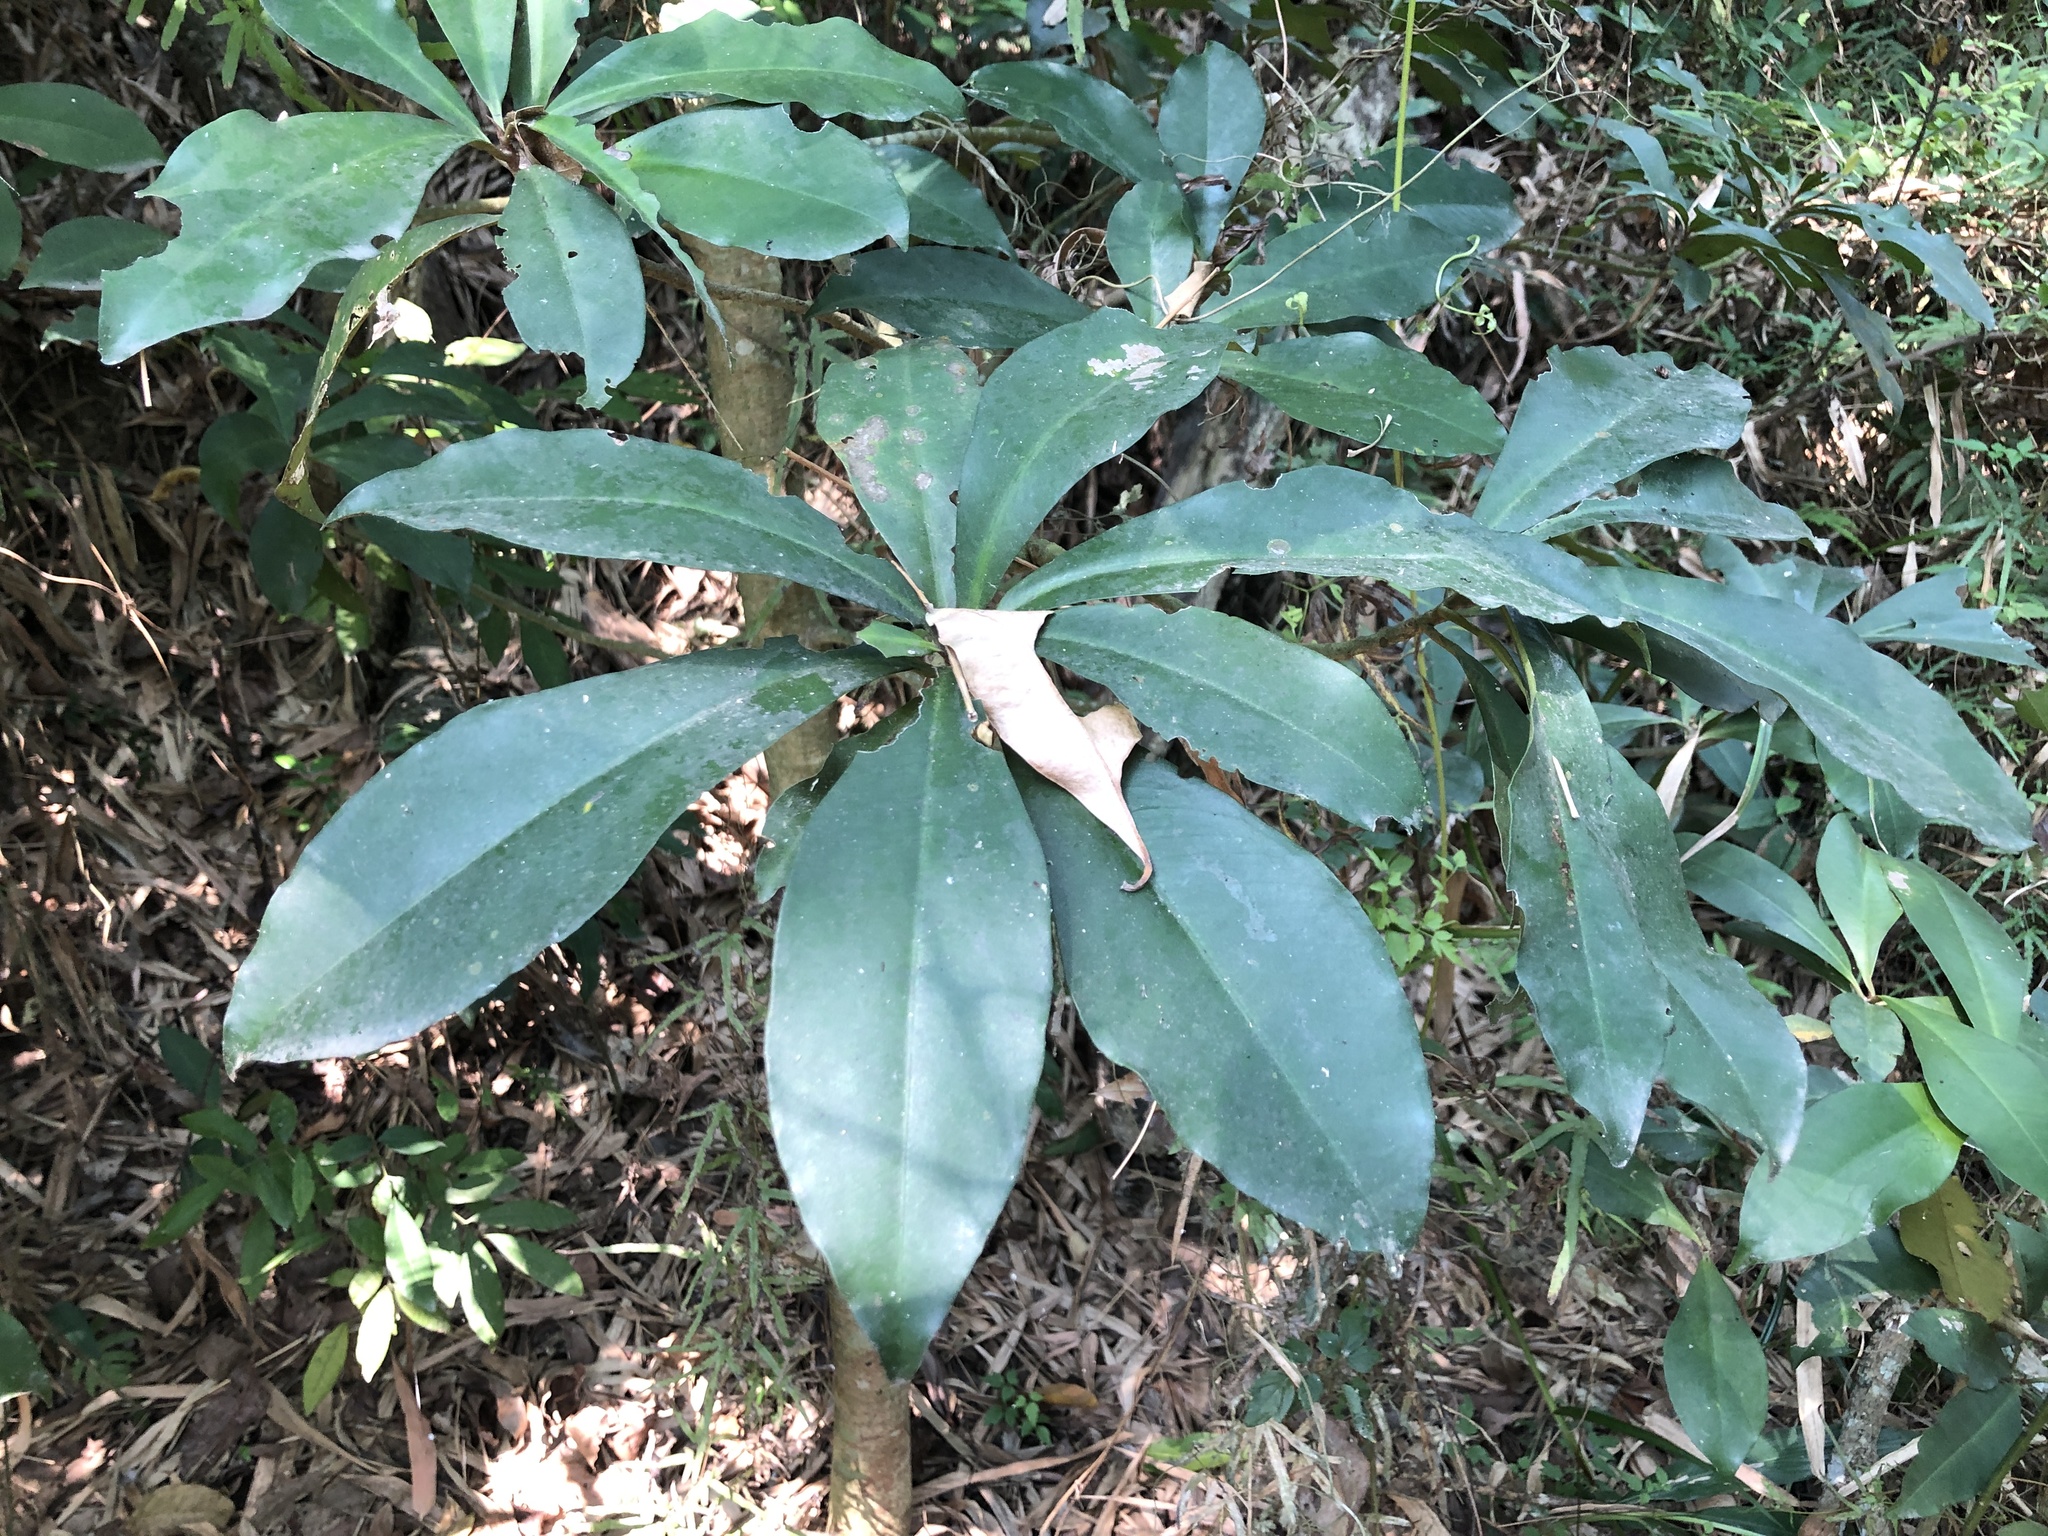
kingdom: Plantae
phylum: Tracheophyta
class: Magnoliopsida
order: Ericales
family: Primulaceae
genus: Ardisia
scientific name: Ardisia sieboldii
